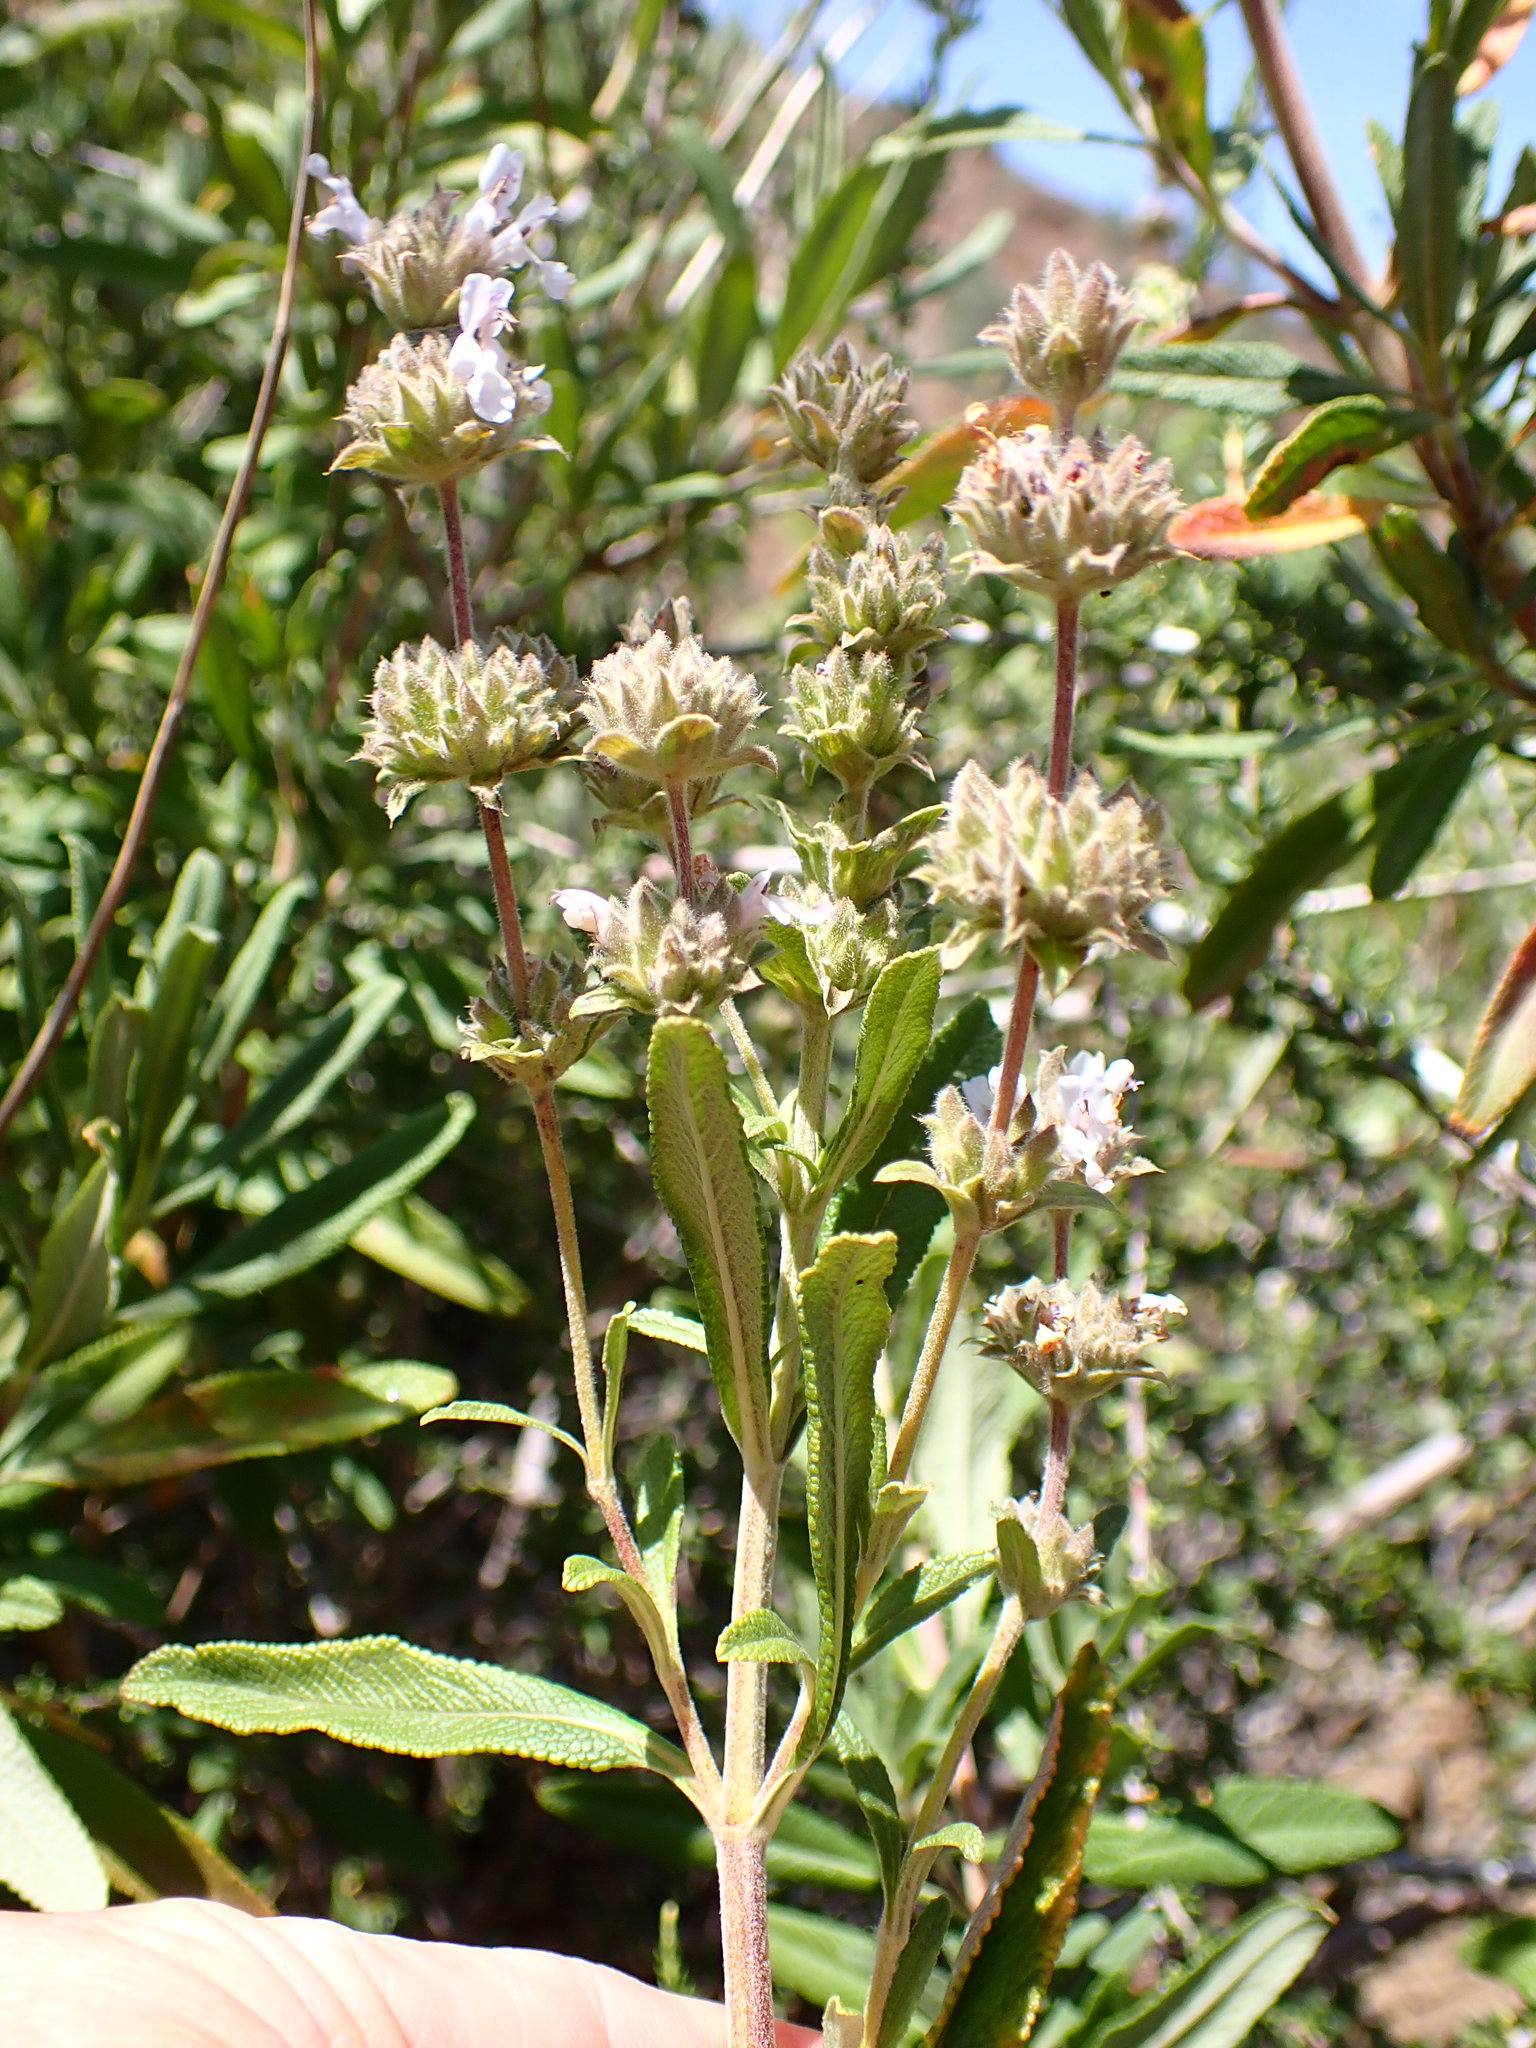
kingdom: Plantae
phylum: Tracheophyta
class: Magnoliopsida
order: Lamiales
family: Lamiaceae
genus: Salvia
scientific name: Salvia mellifera
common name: Black sage
